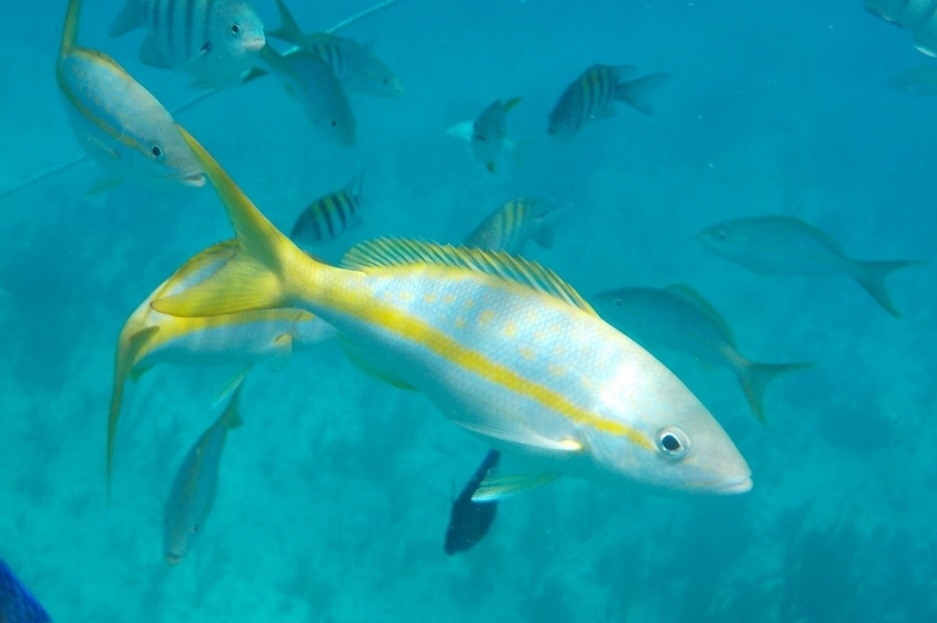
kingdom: Animalia
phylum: Chordata
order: Perciformes
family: Lutjanidae
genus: Ocyurus
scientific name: Ocyurus chrysurus
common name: Yellowtail snapper
